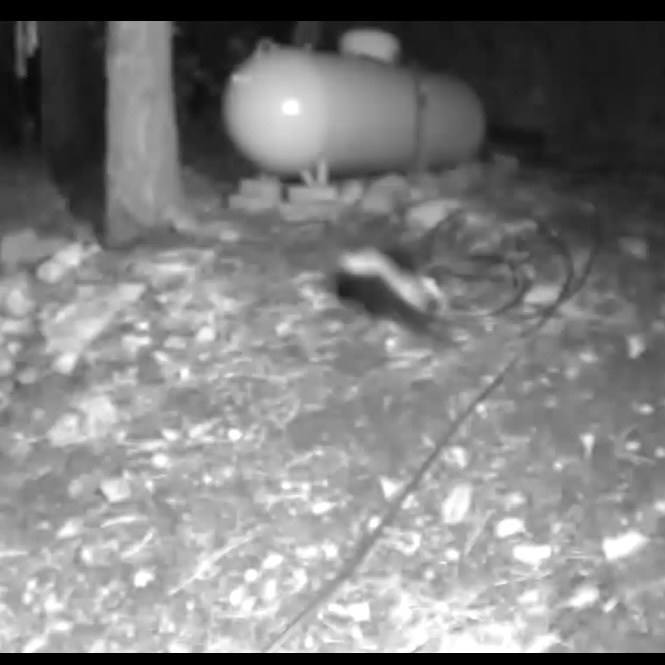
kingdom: Animalia
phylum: Chordata
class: Mammalia
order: Carnivora
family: Mephitidae
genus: Mephitis
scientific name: Mephitis mephitis
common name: Striped skunk
